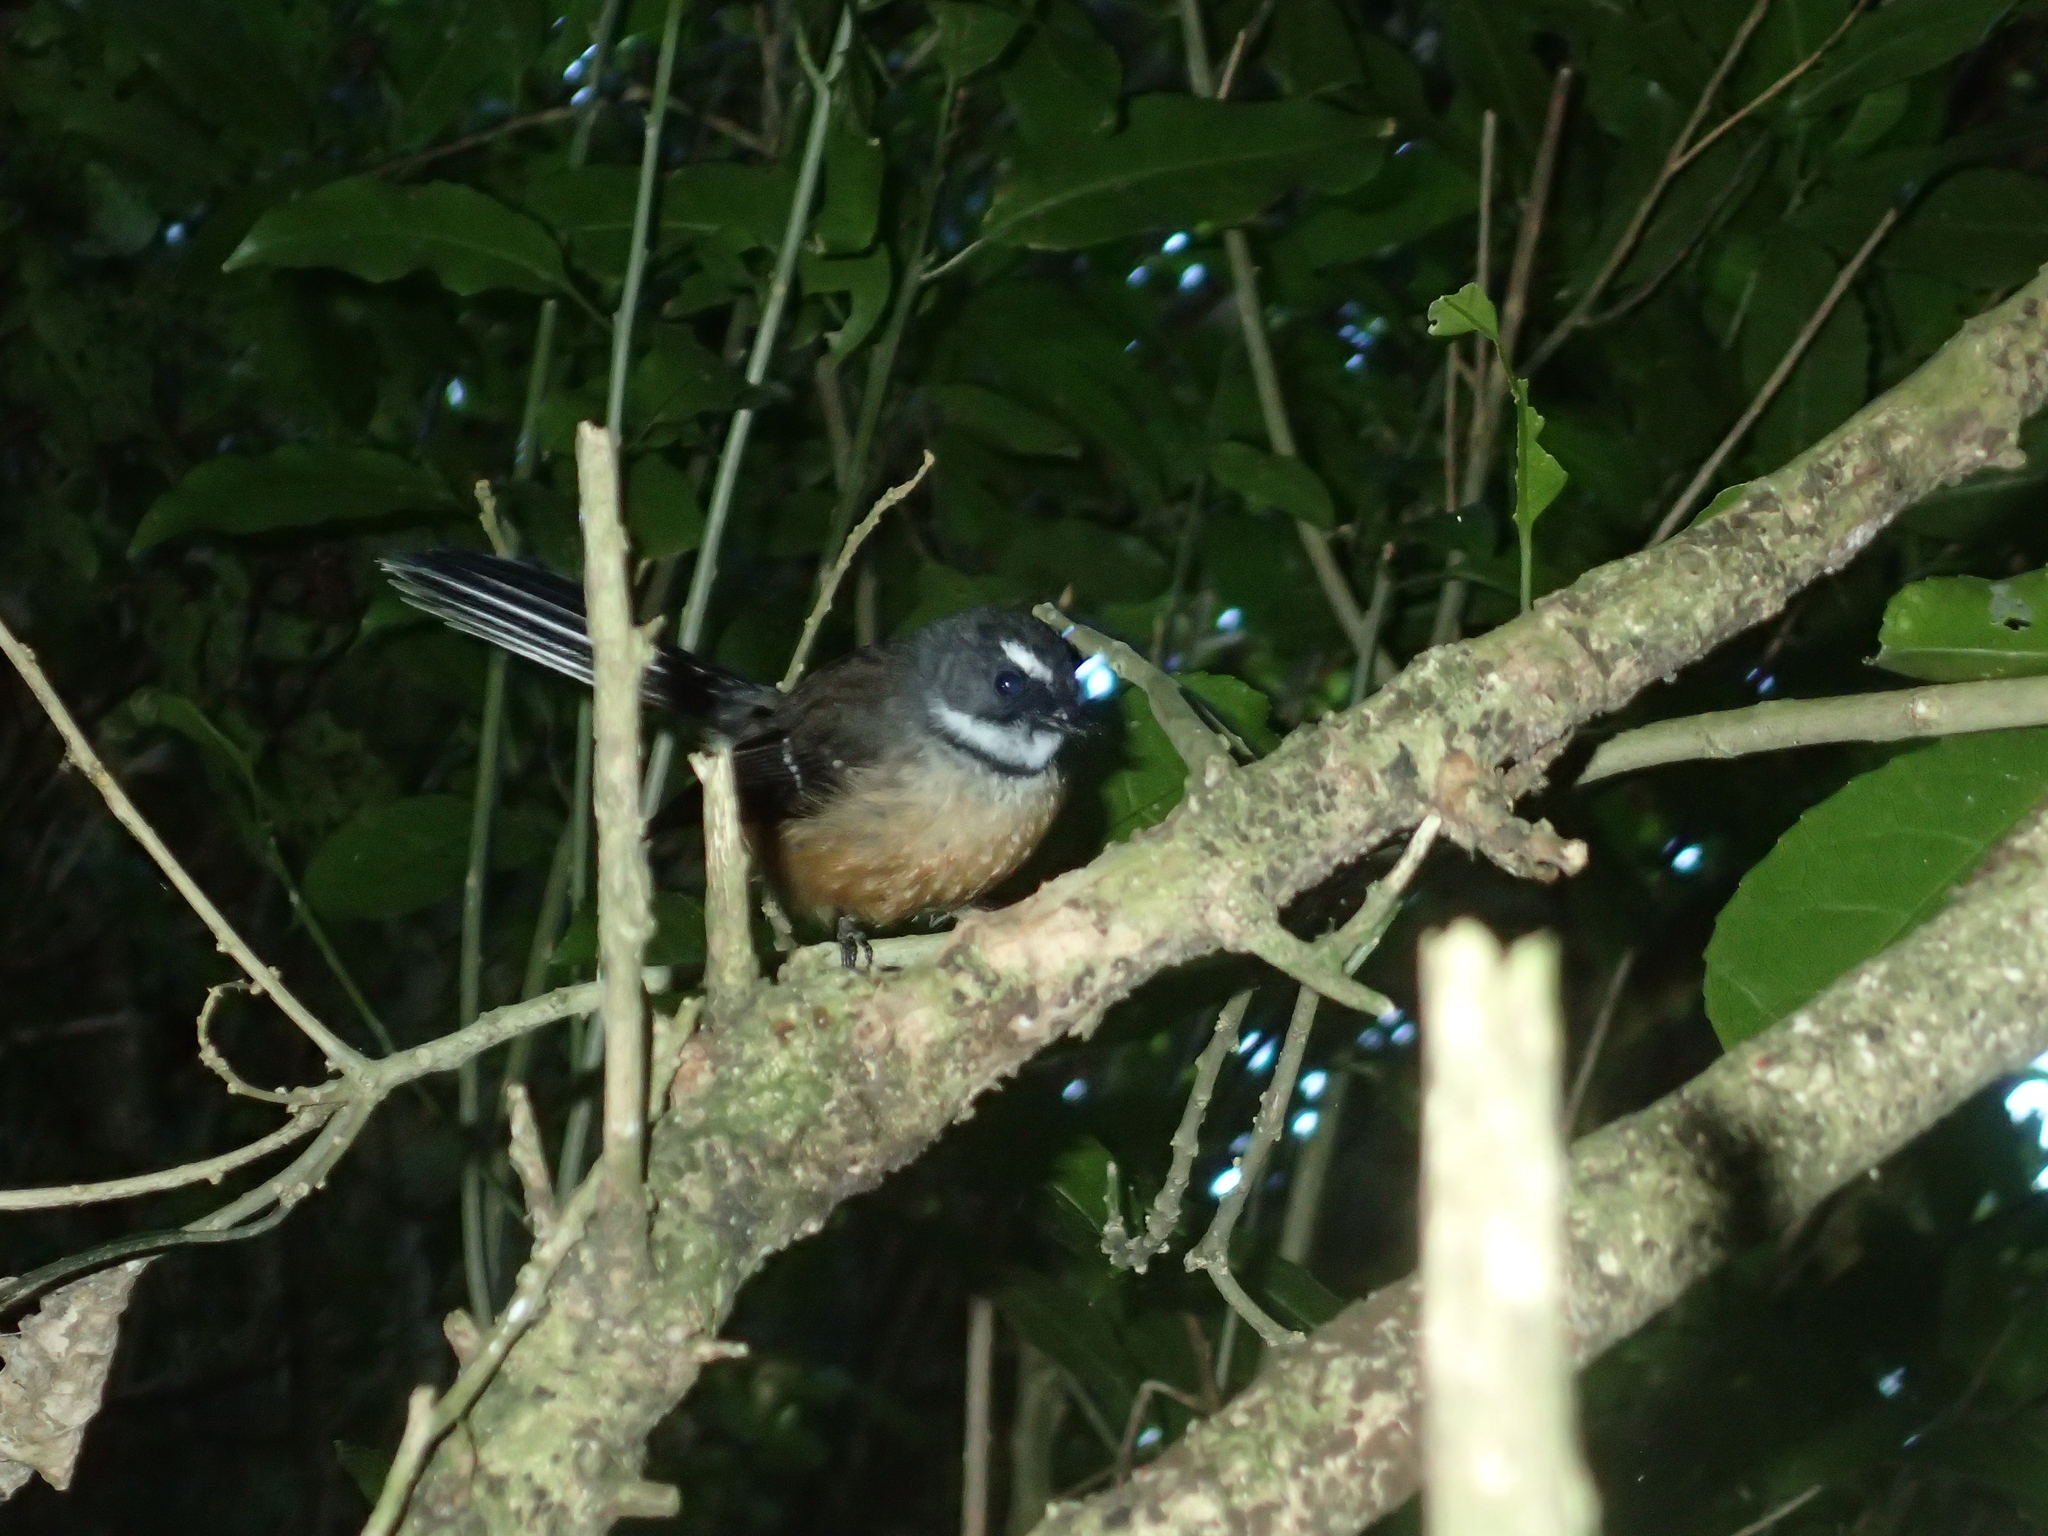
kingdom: Animalia
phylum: Chordata
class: Aves
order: Passeriformes
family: Rhipiduridae
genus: Rhipidura
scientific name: Rhipidura fuliginosa
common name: New zealand fantail
